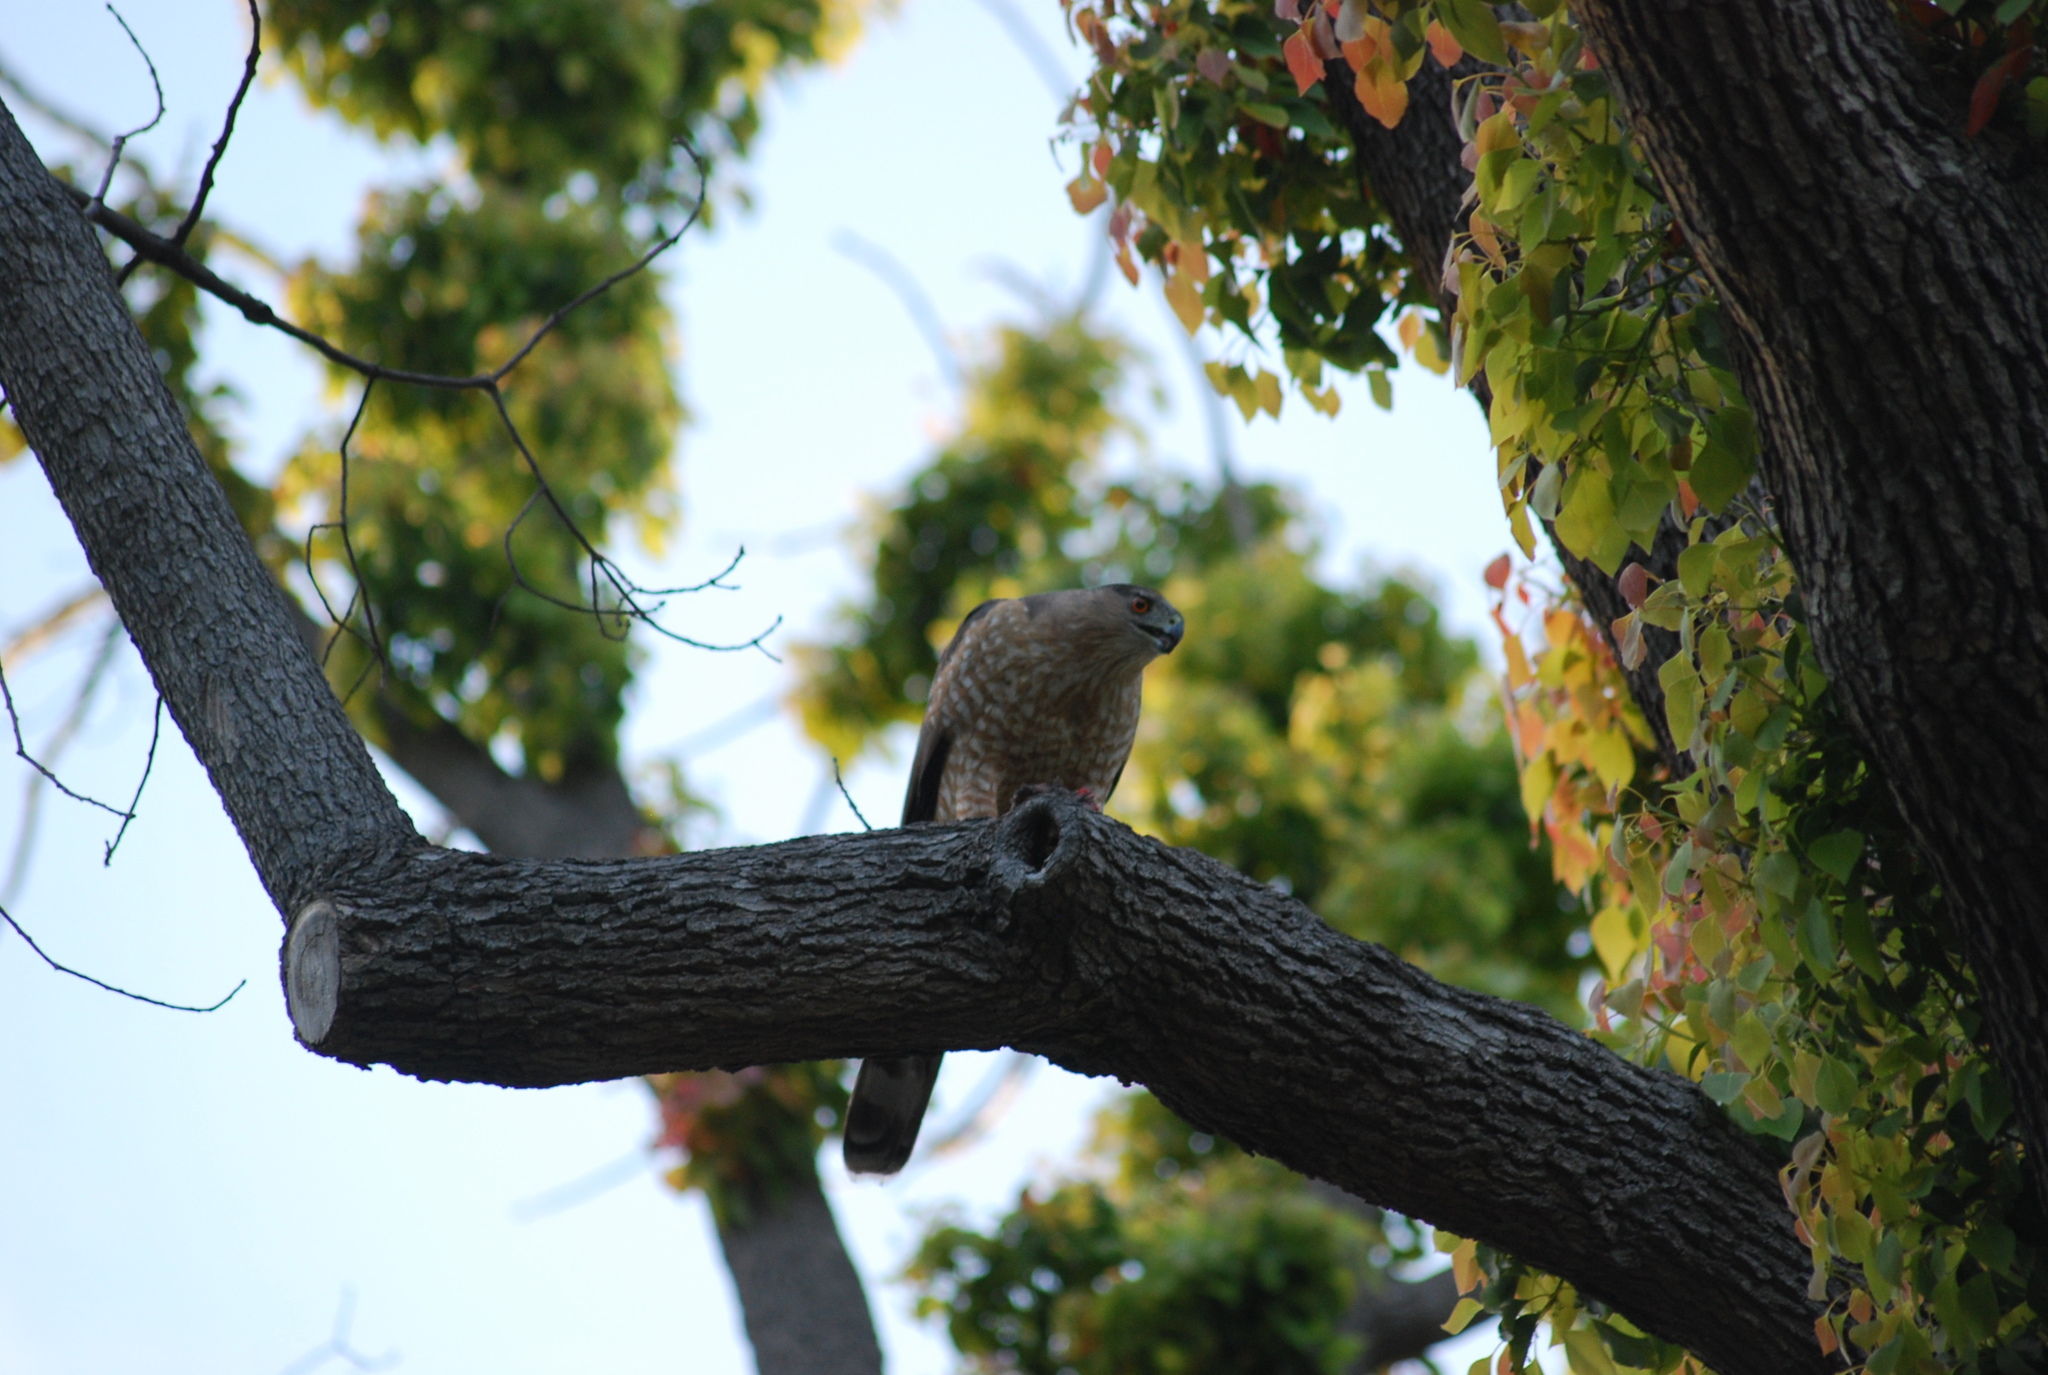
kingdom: Animalia
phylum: Chordata
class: Aves
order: Accipitriformes
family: Accipitridae
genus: Accipiter
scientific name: Accipiter cooperii
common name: Cooper's hawk
